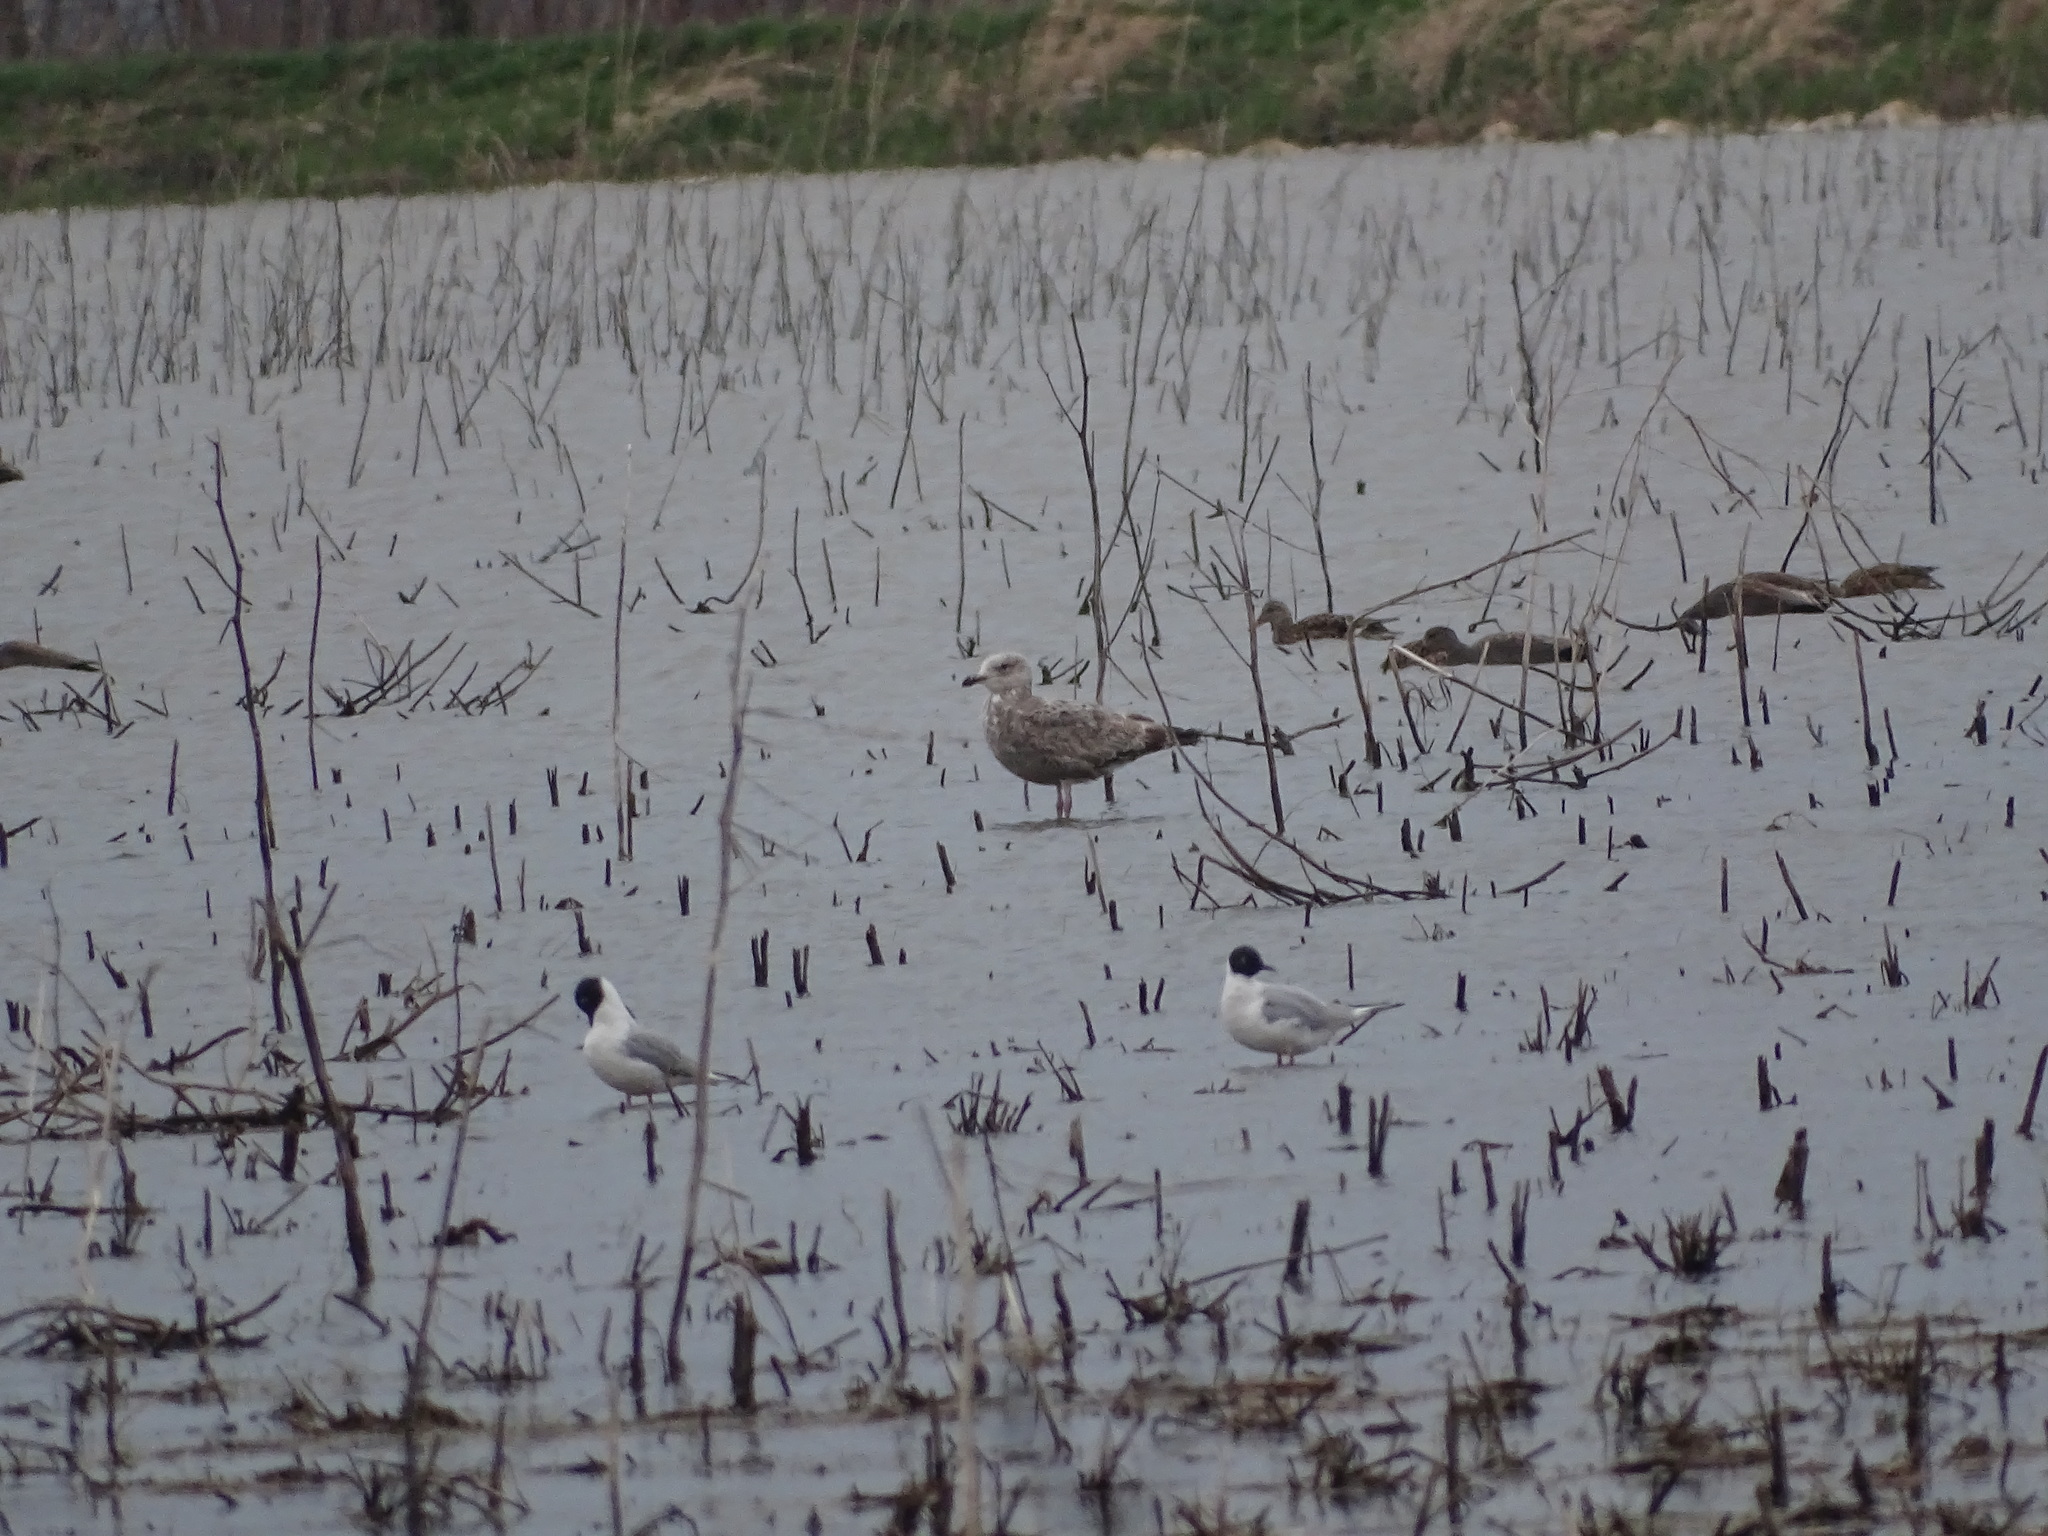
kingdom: Animalia
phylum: Chordata
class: Aves
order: Charadriiformes
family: Laridae
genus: Larus
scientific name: Larus argentatus
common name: Herring gull
